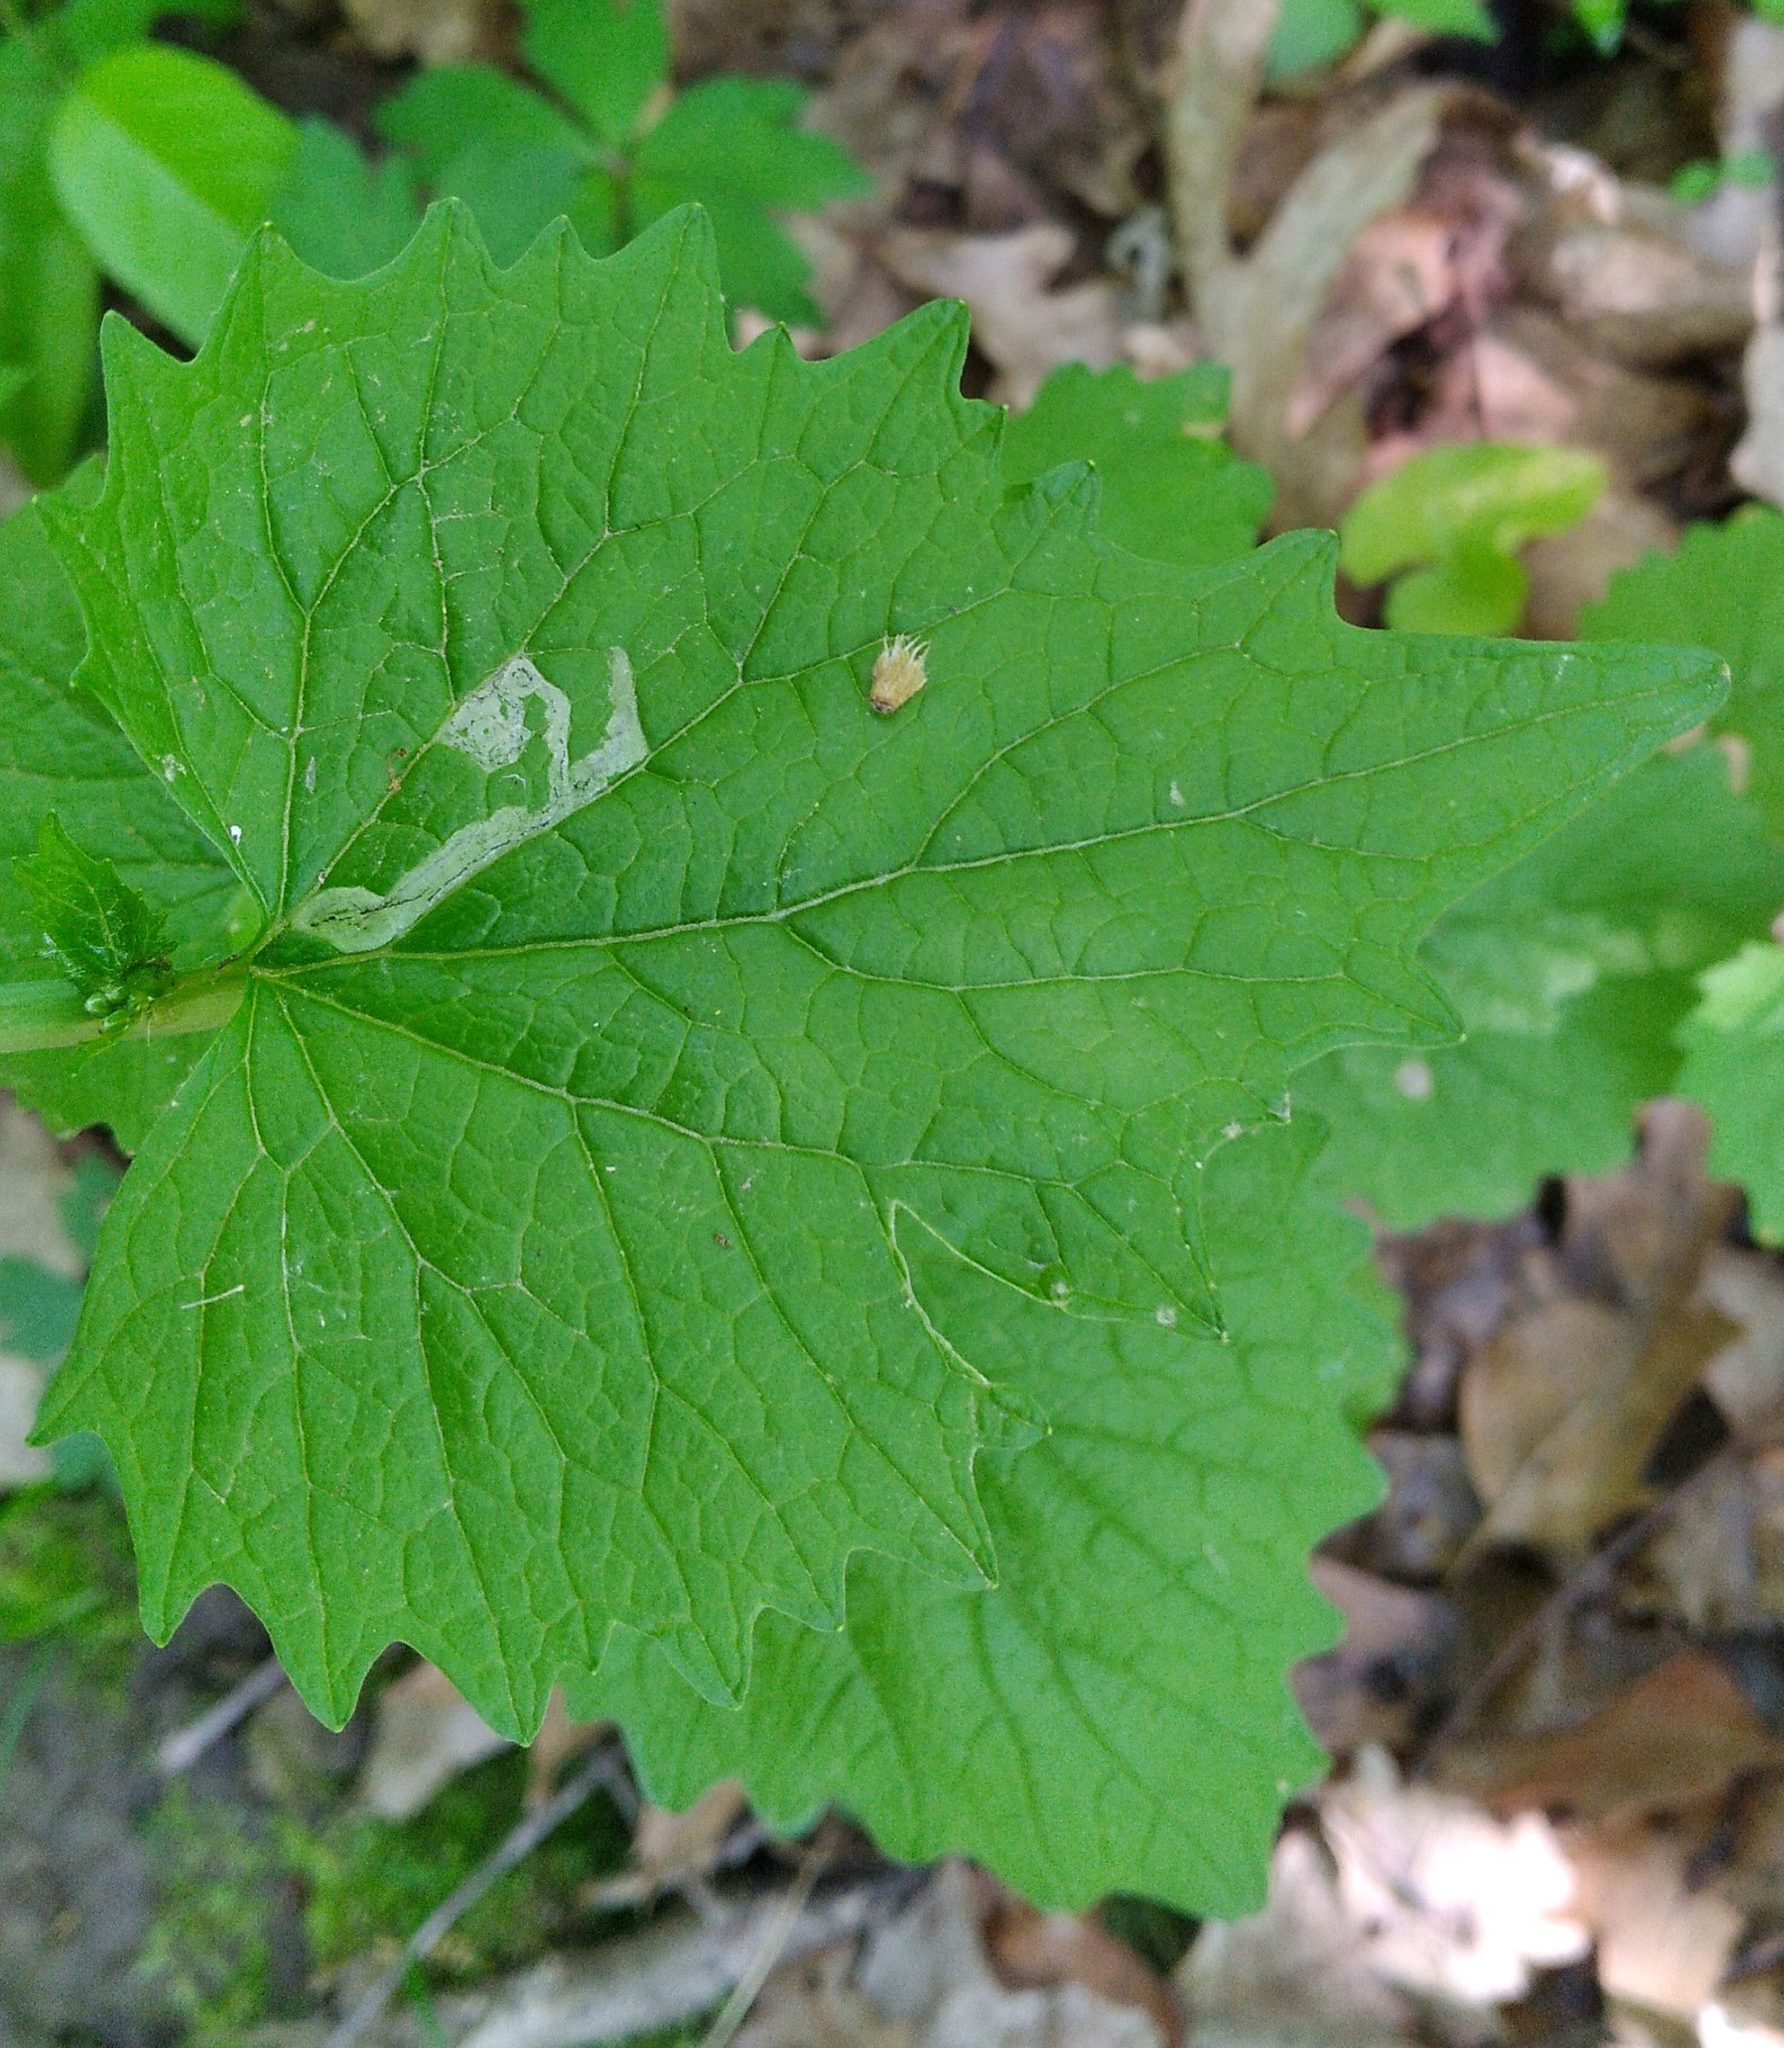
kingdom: Animalia
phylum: Arthropoda
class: Insecta
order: Diptera
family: Agromyzidae
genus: Liriomyza
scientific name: Liriomyza brassicae
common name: Serpentine leaf miner
